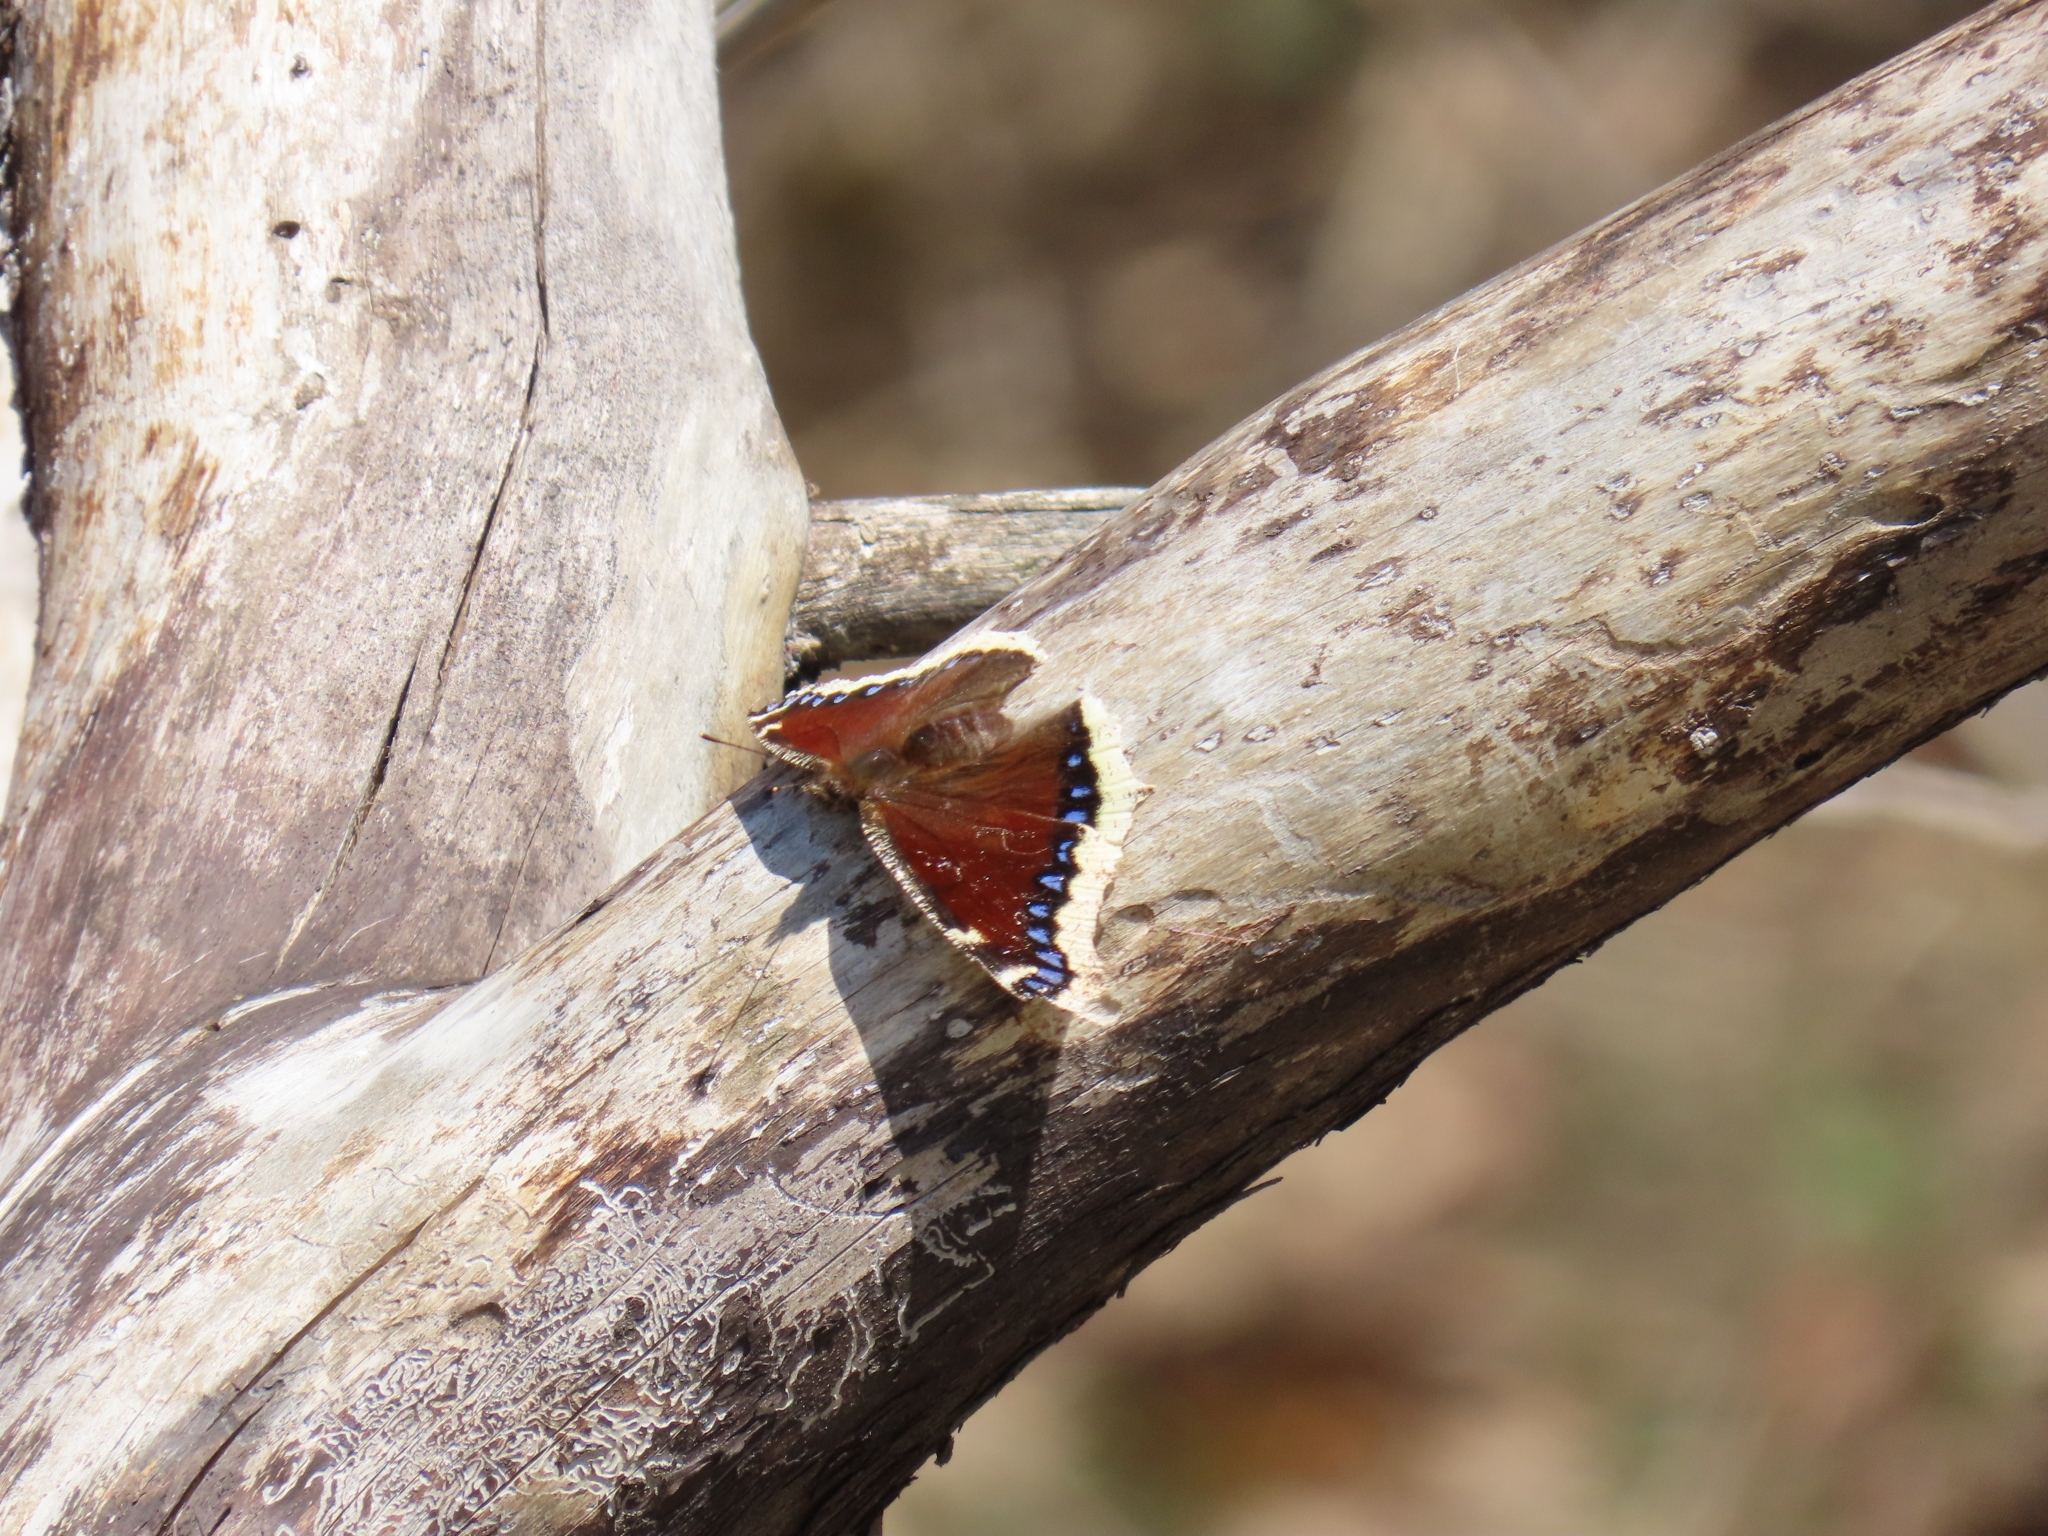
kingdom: Animalia
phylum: Arthropoda
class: Insecta
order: Lepidoptera
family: Nymphalidae
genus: Nymphalis
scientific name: Nymphalis antiopa
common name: Camberwell beauty
